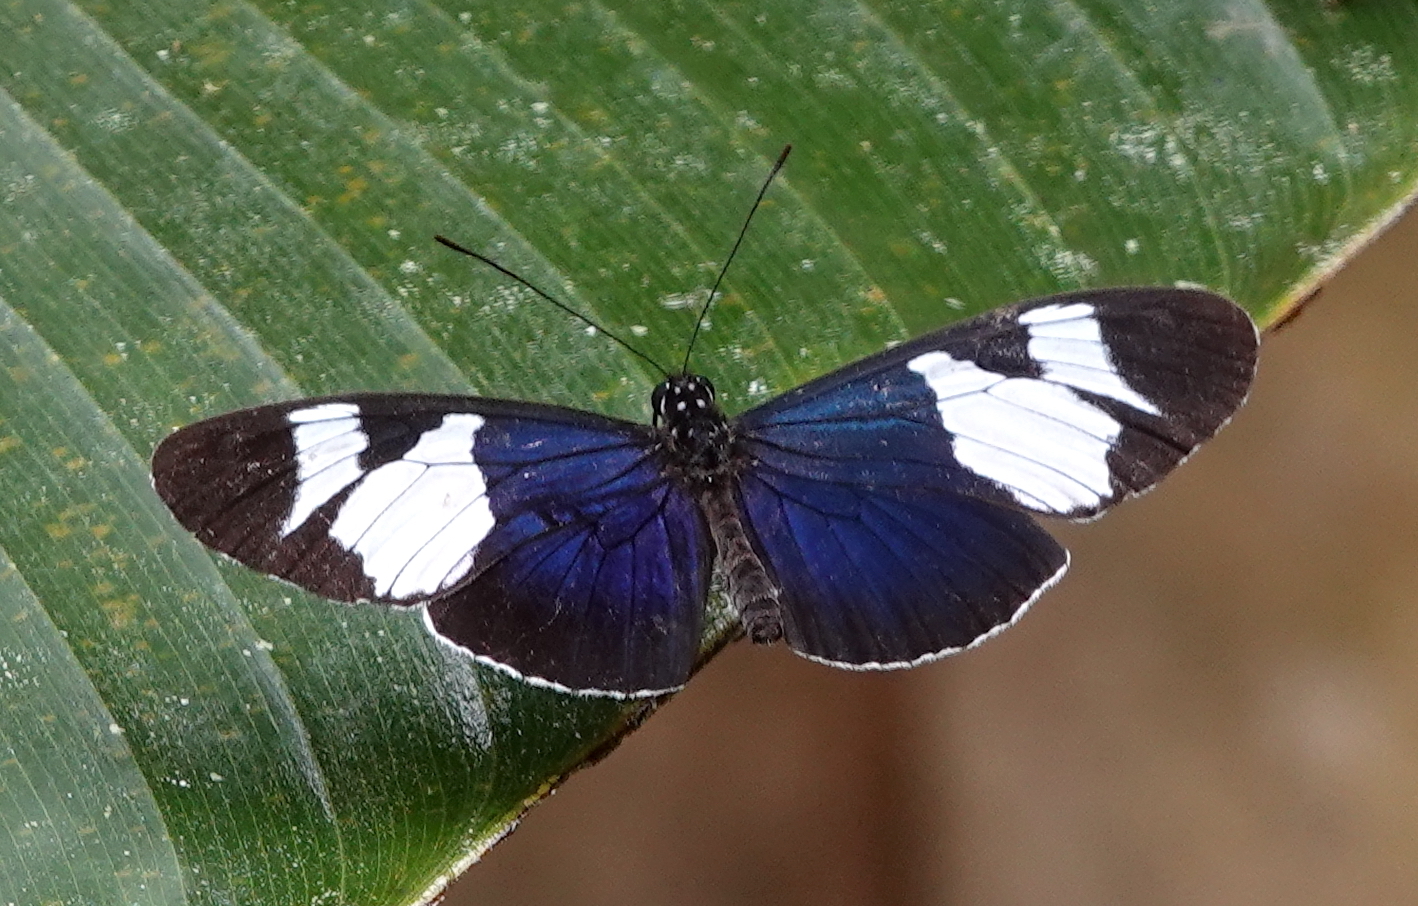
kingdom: Animalia
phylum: Arthropoda
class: Insecta
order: Lepidoptera
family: Nymphalidae
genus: Heliconius
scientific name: Heliconius eleuchia
